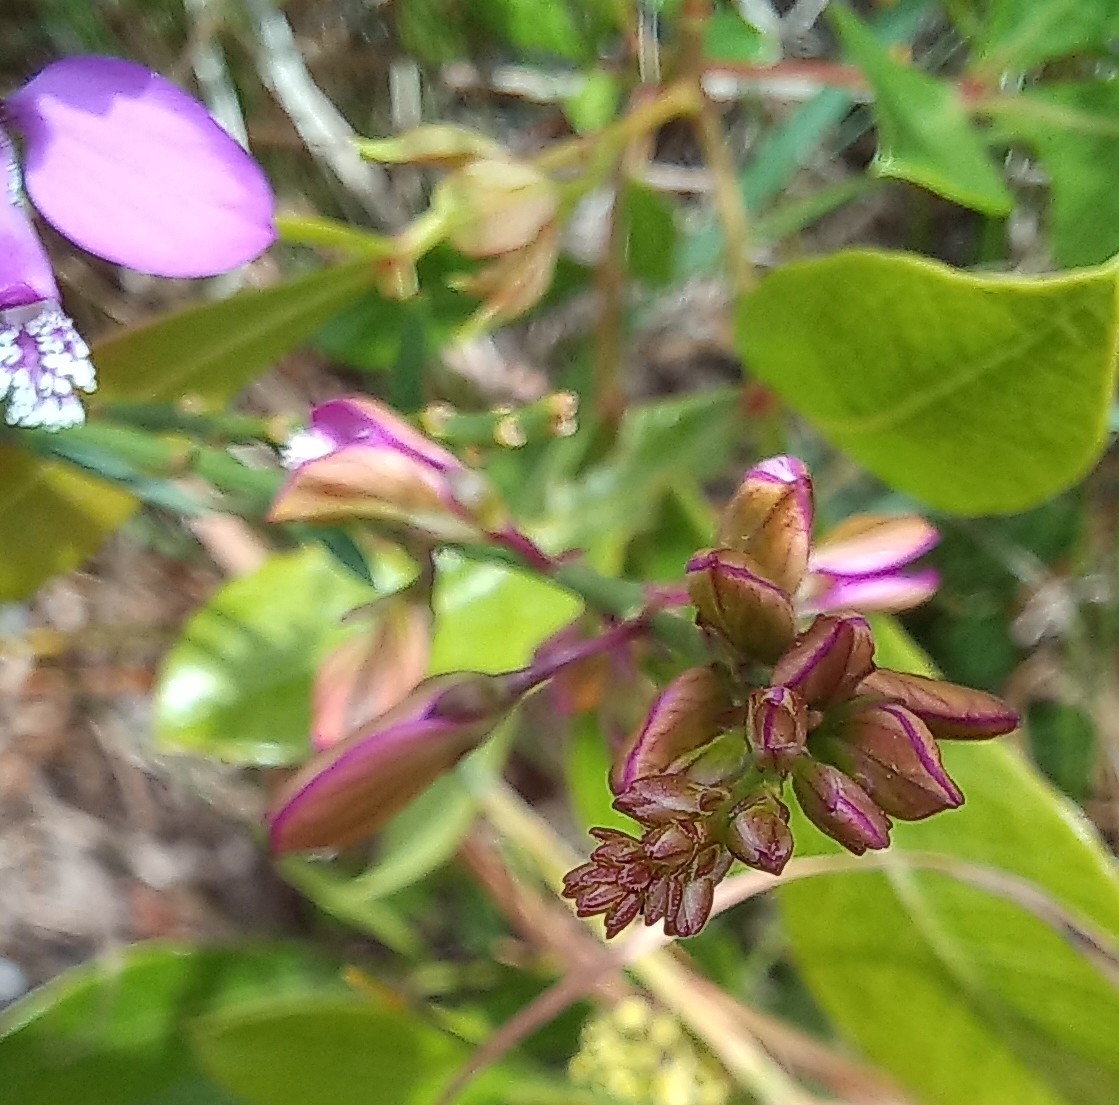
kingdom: Plantae
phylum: Tracheophyta
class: Magnoliopsida
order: Fabales
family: Polygalaceae
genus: Polygala
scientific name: Polygala garcini
